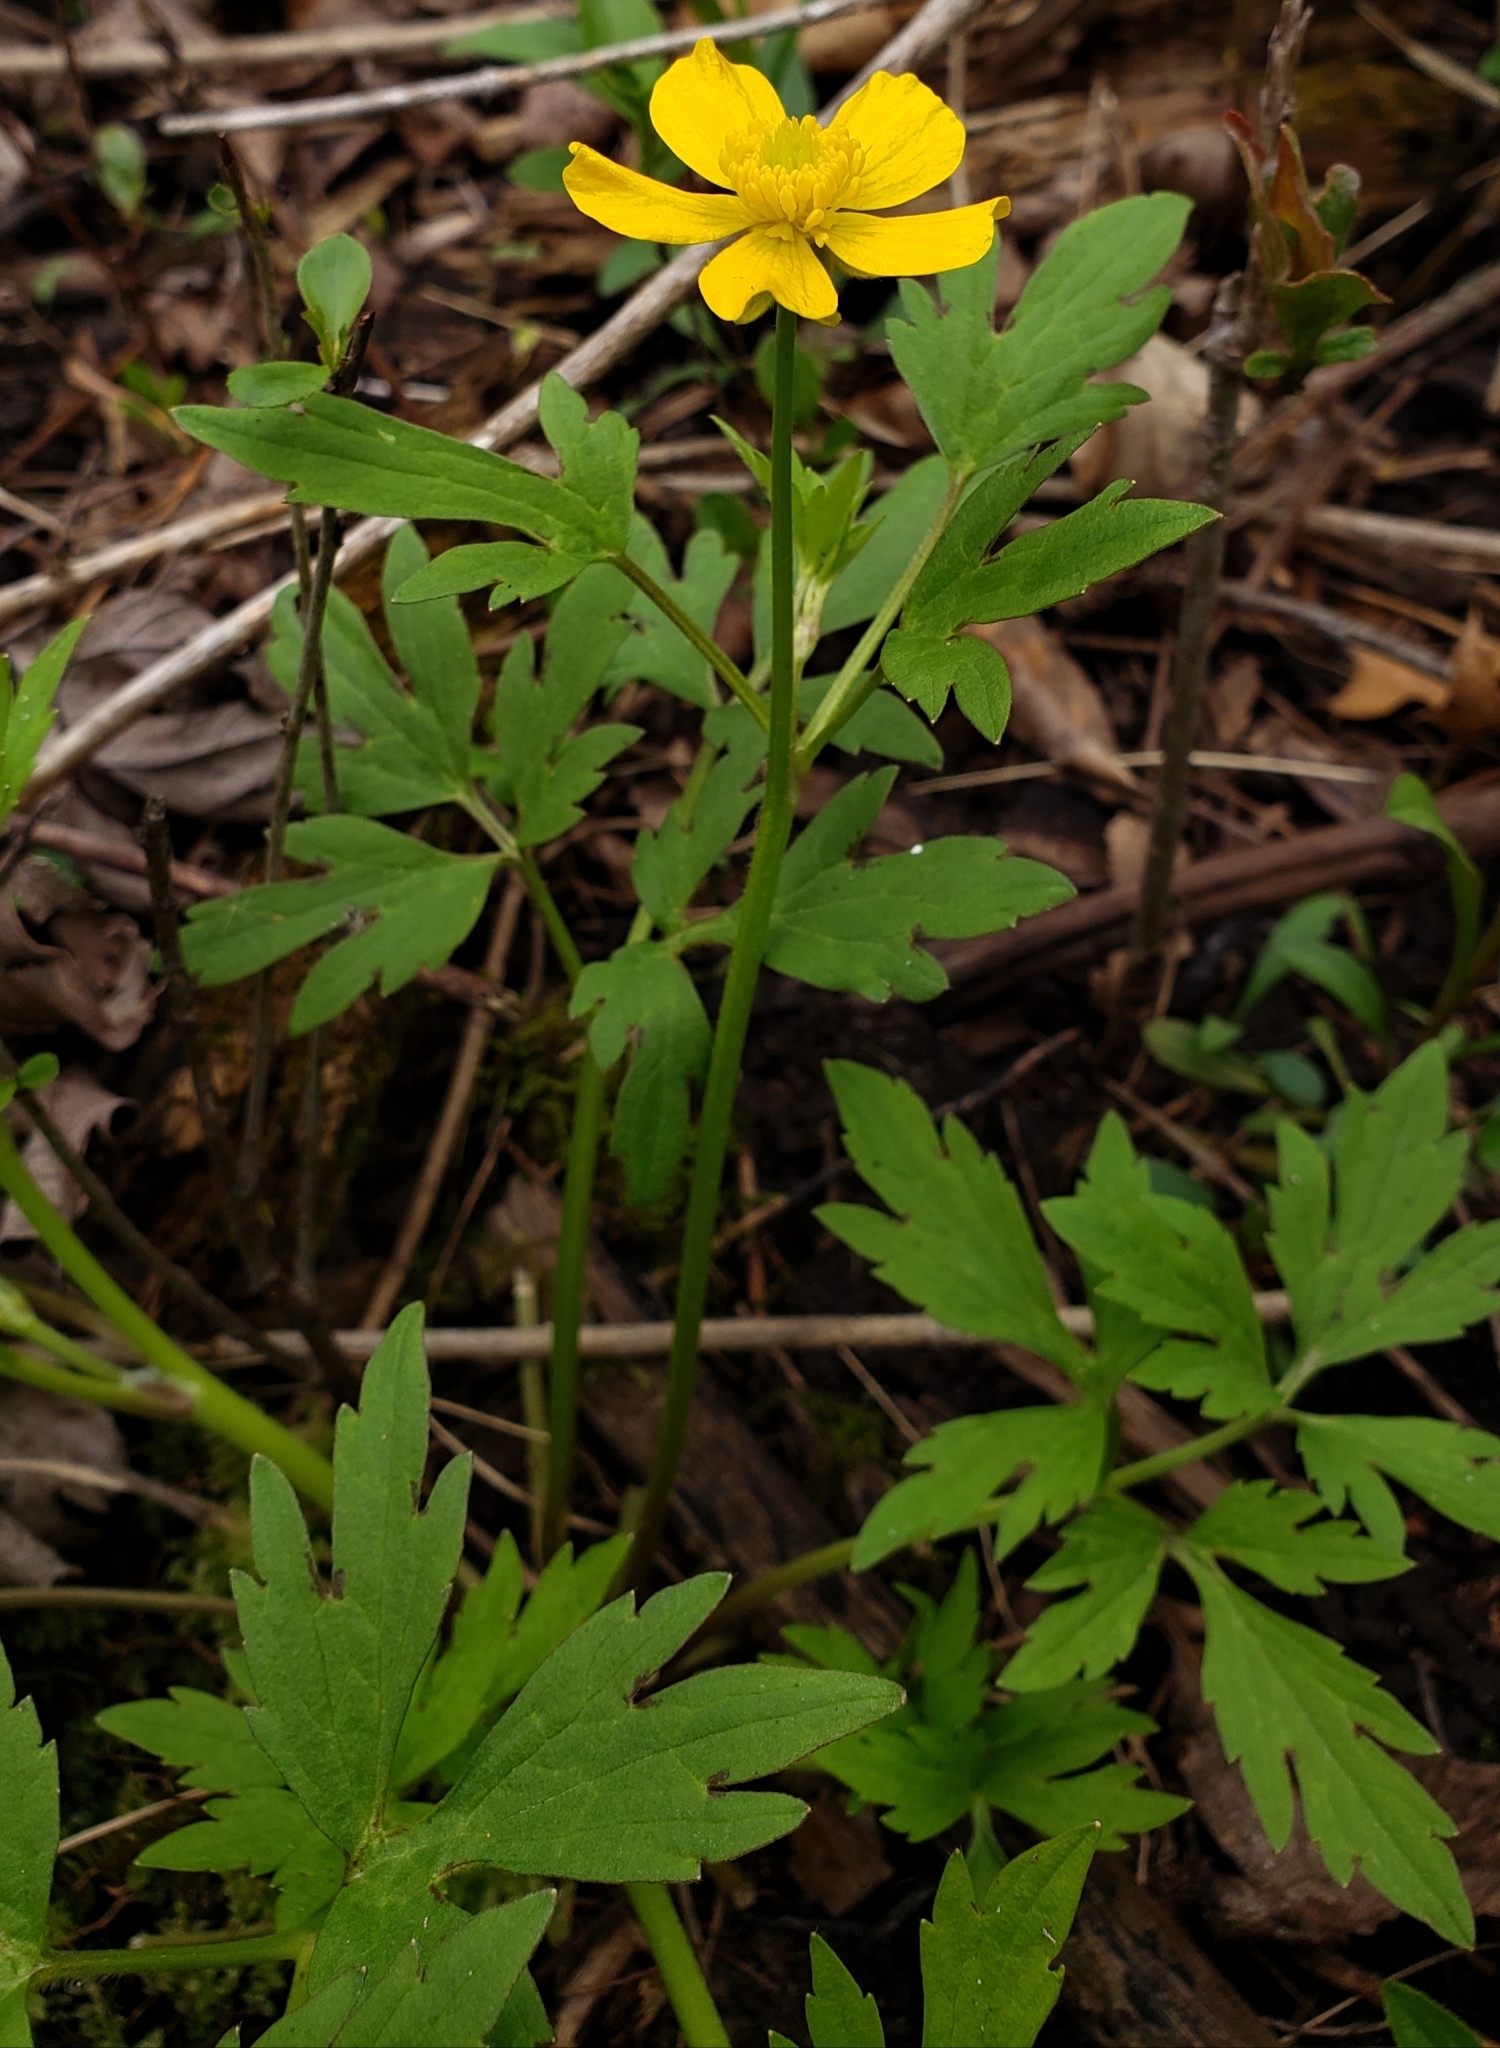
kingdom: Plantae
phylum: Tracheophyta
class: Magnoliopsida
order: Ranunculales
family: Ranunculaceae
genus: Ranunculus
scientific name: Ranunculus hispidus
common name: Bristly buttercup
